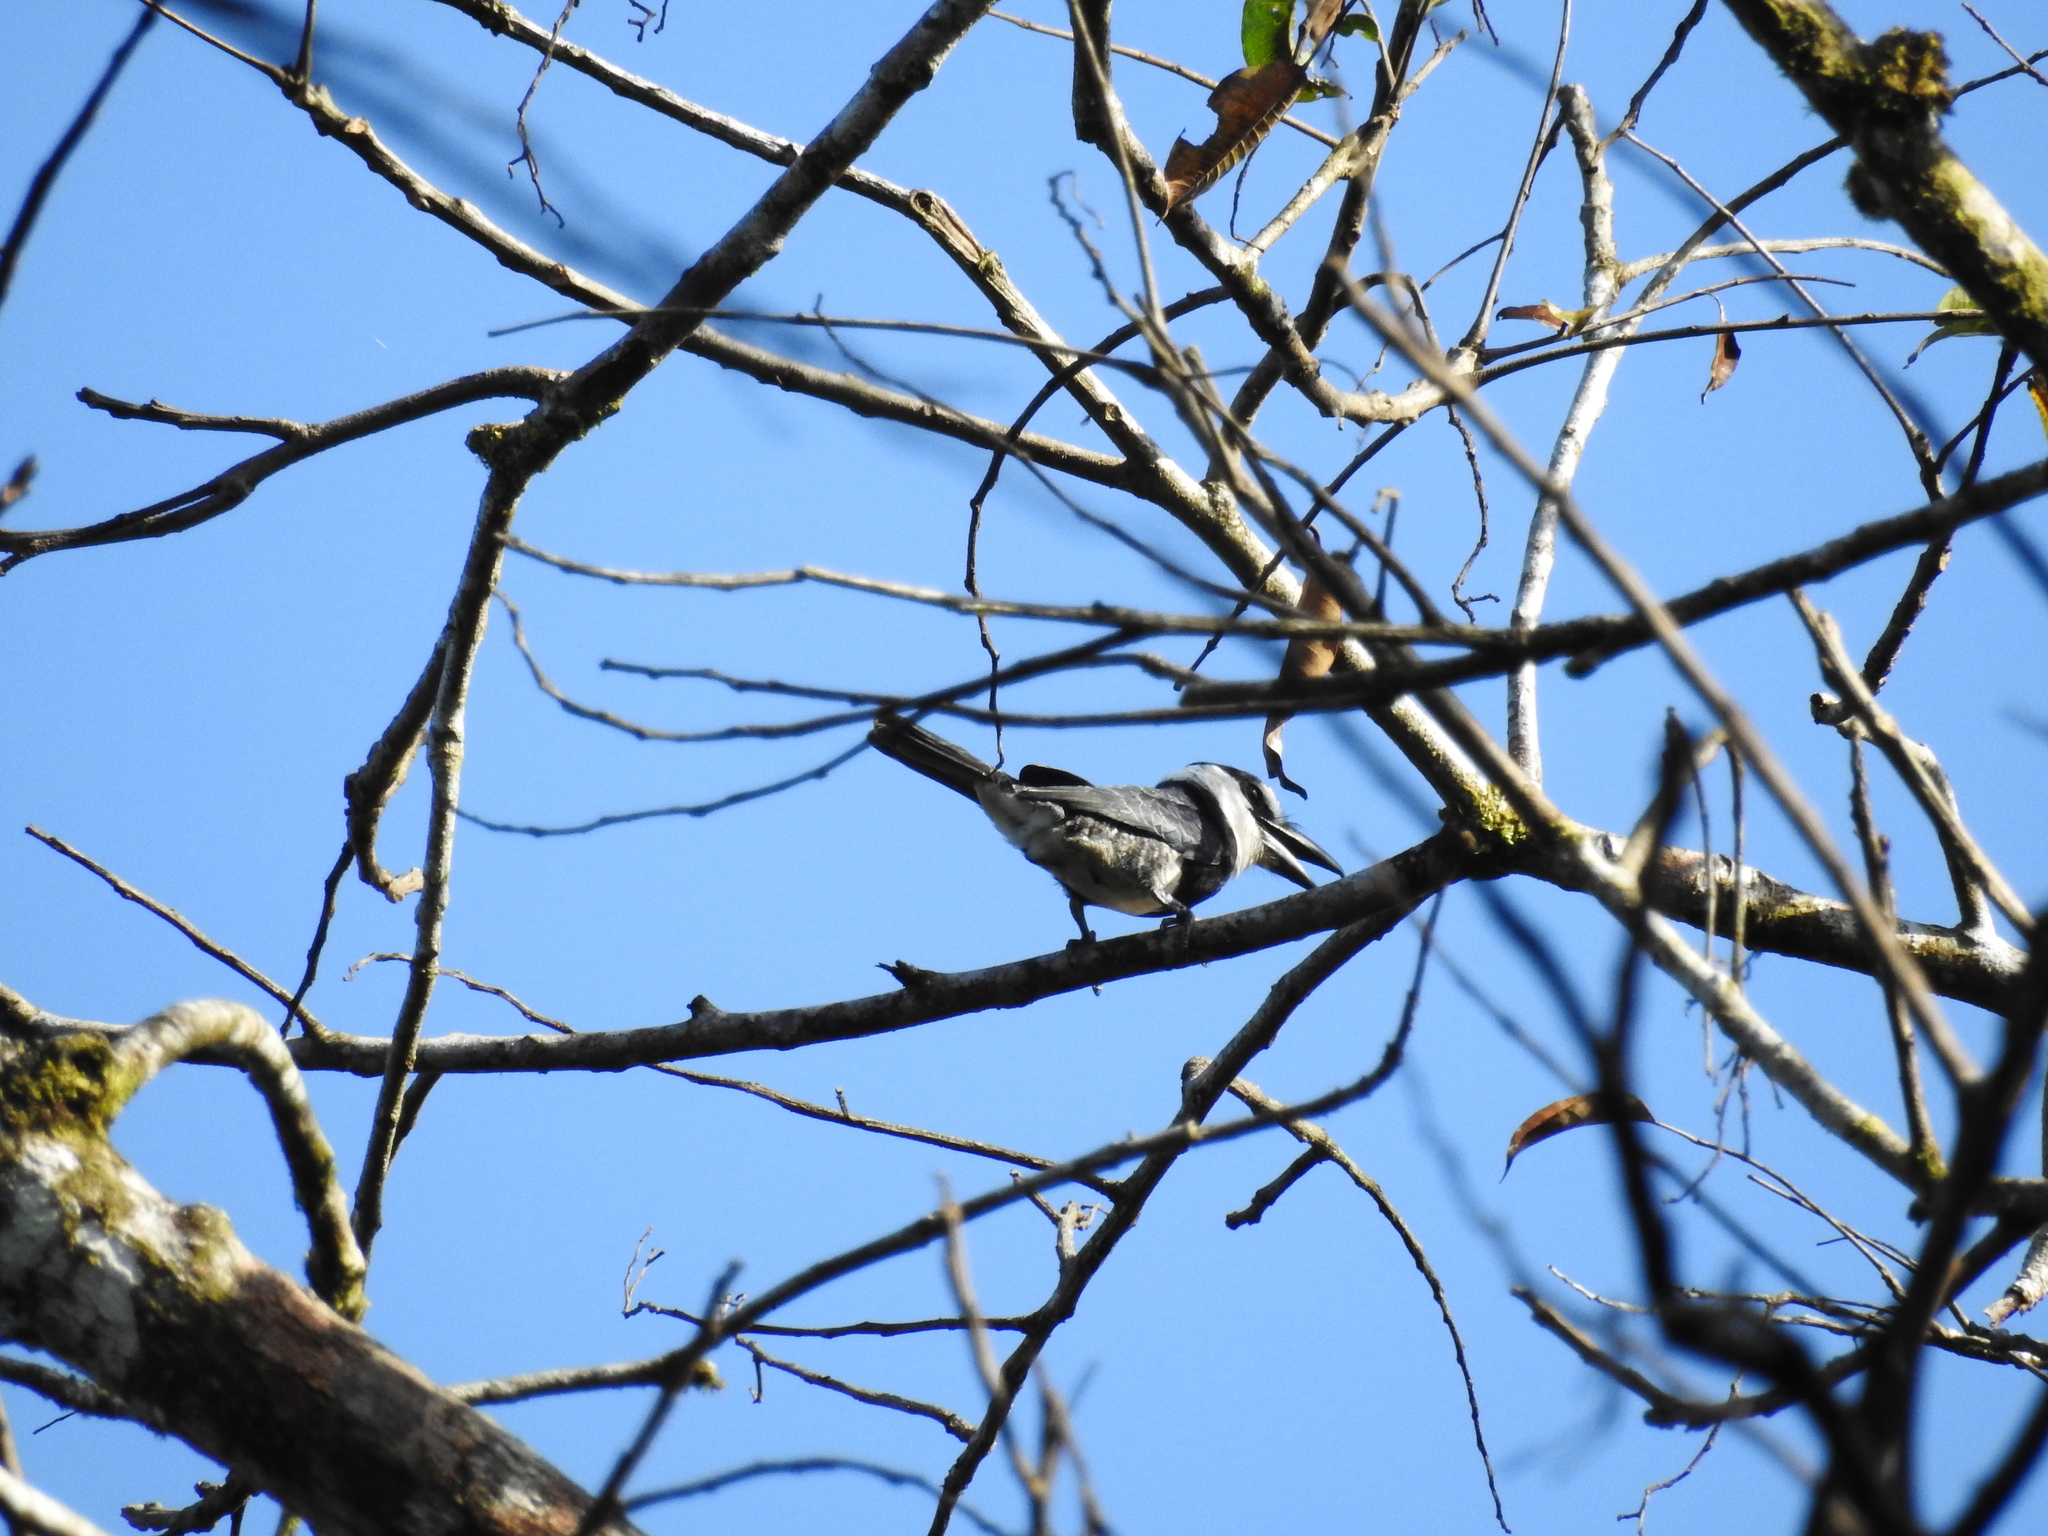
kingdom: Animalia
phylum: Chordata
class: Aves
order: Piciformes
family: Bucconidae
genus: Notharchus
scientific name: Notharchus hyperrhynchus
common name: White-necked puffbird
